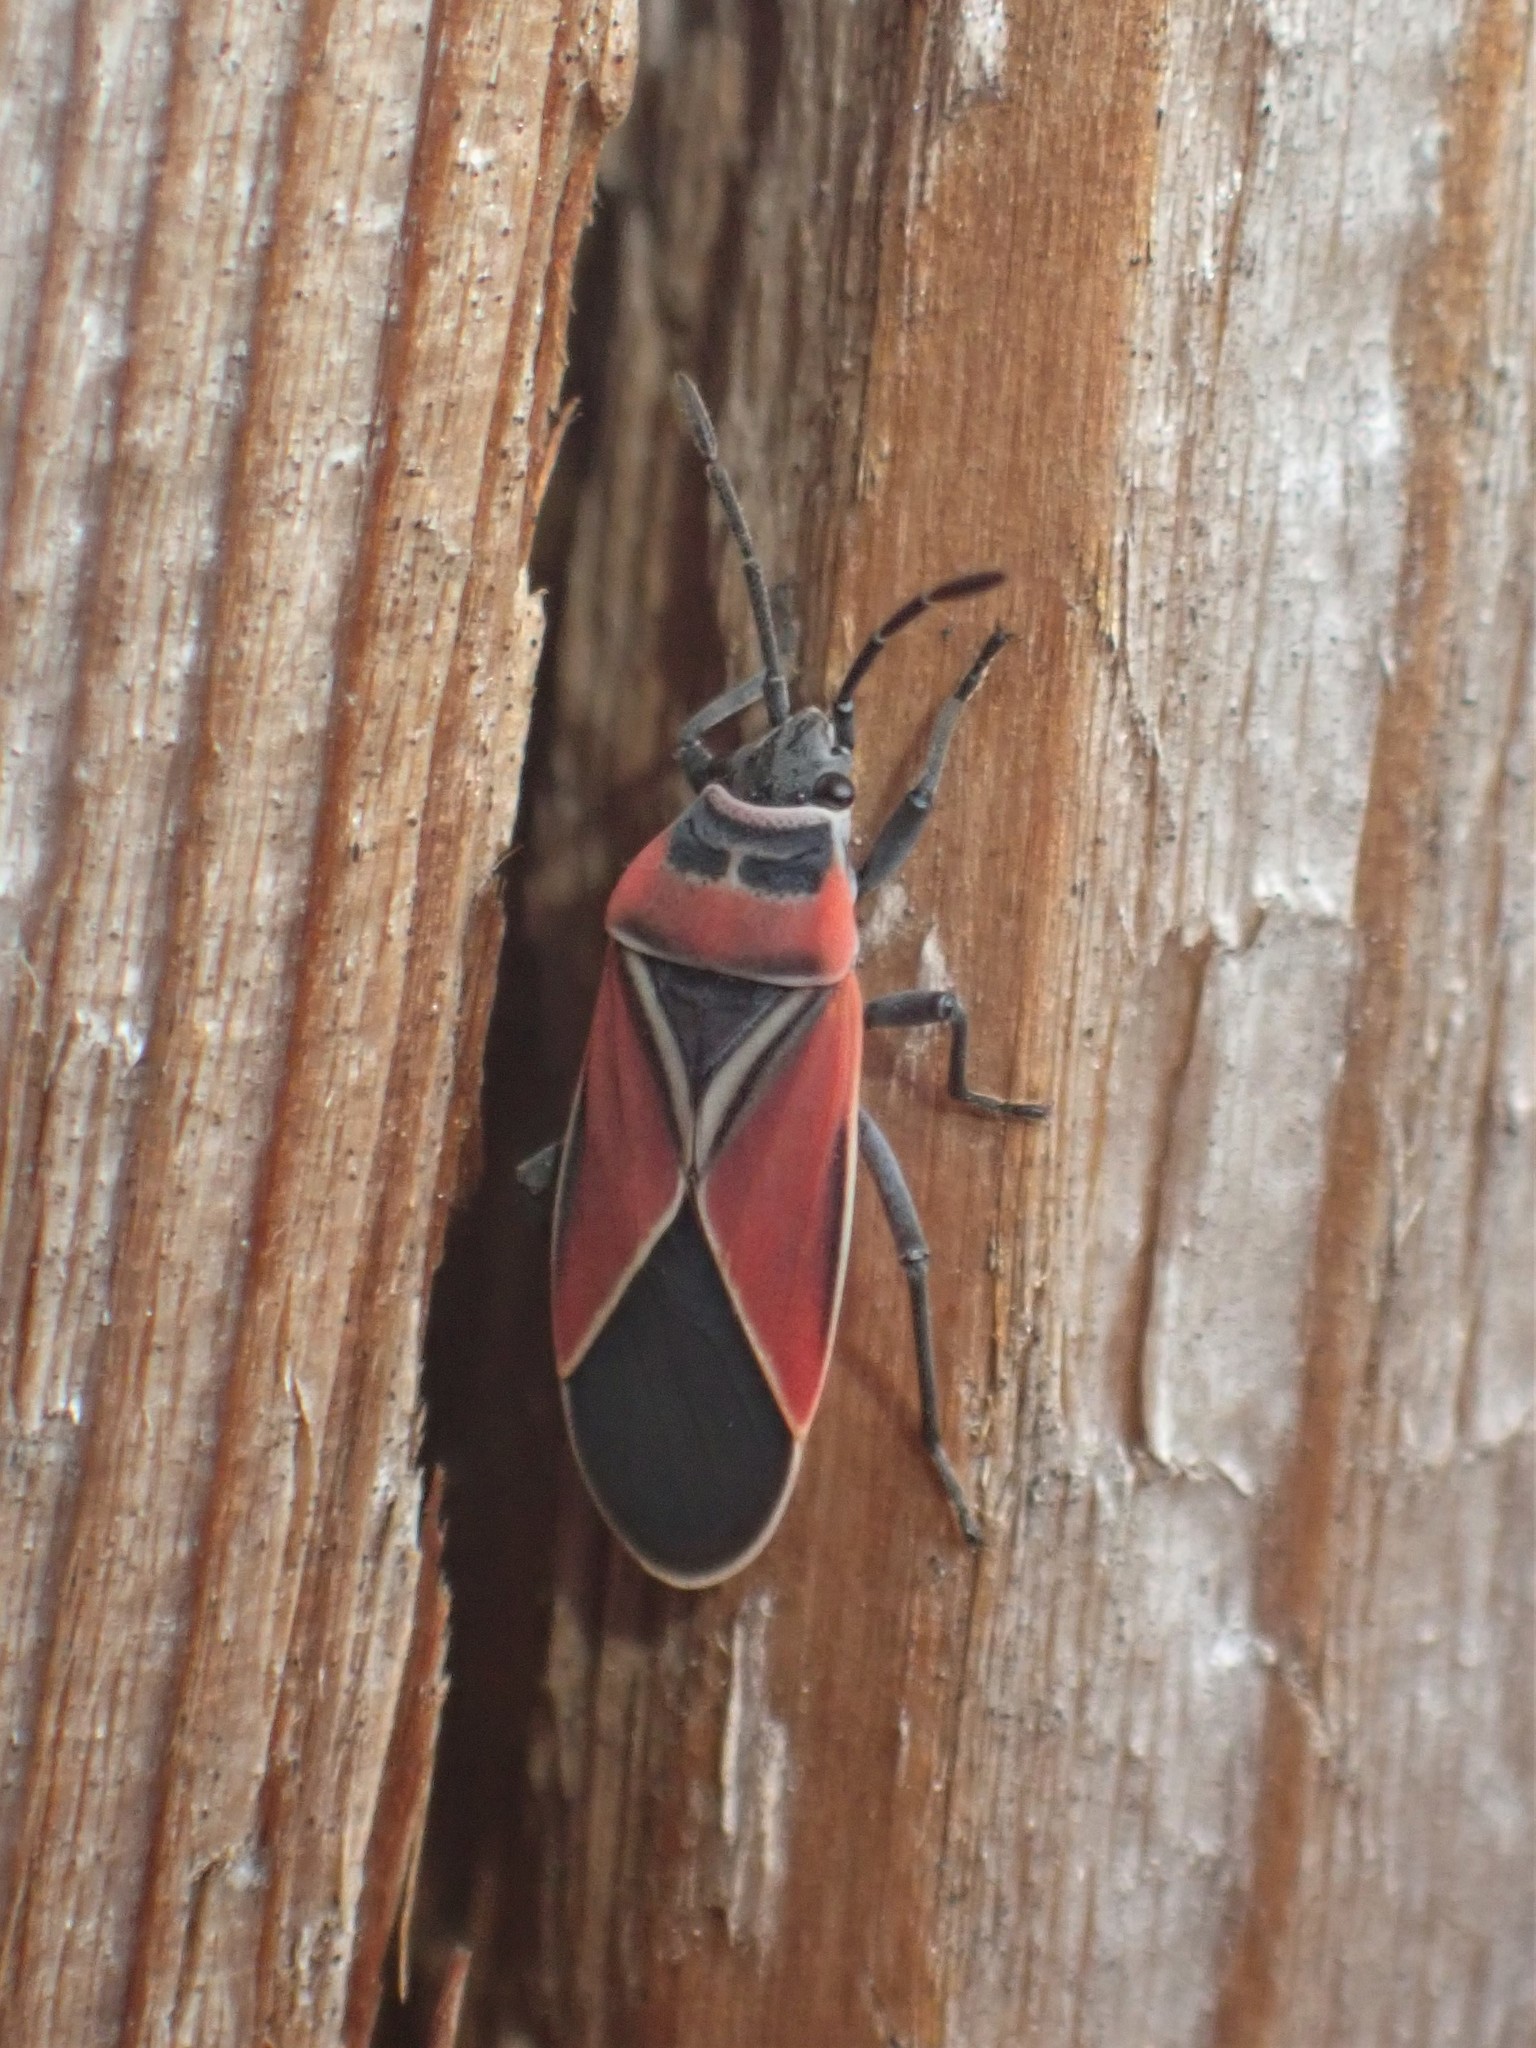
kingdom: Animalia
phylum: Arthropoda
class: Insecta
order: Hemiptera
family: Lygaeidae
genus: Neacoryphus
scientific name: Neacoryphus bicrucis
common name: Lygaeid bug
